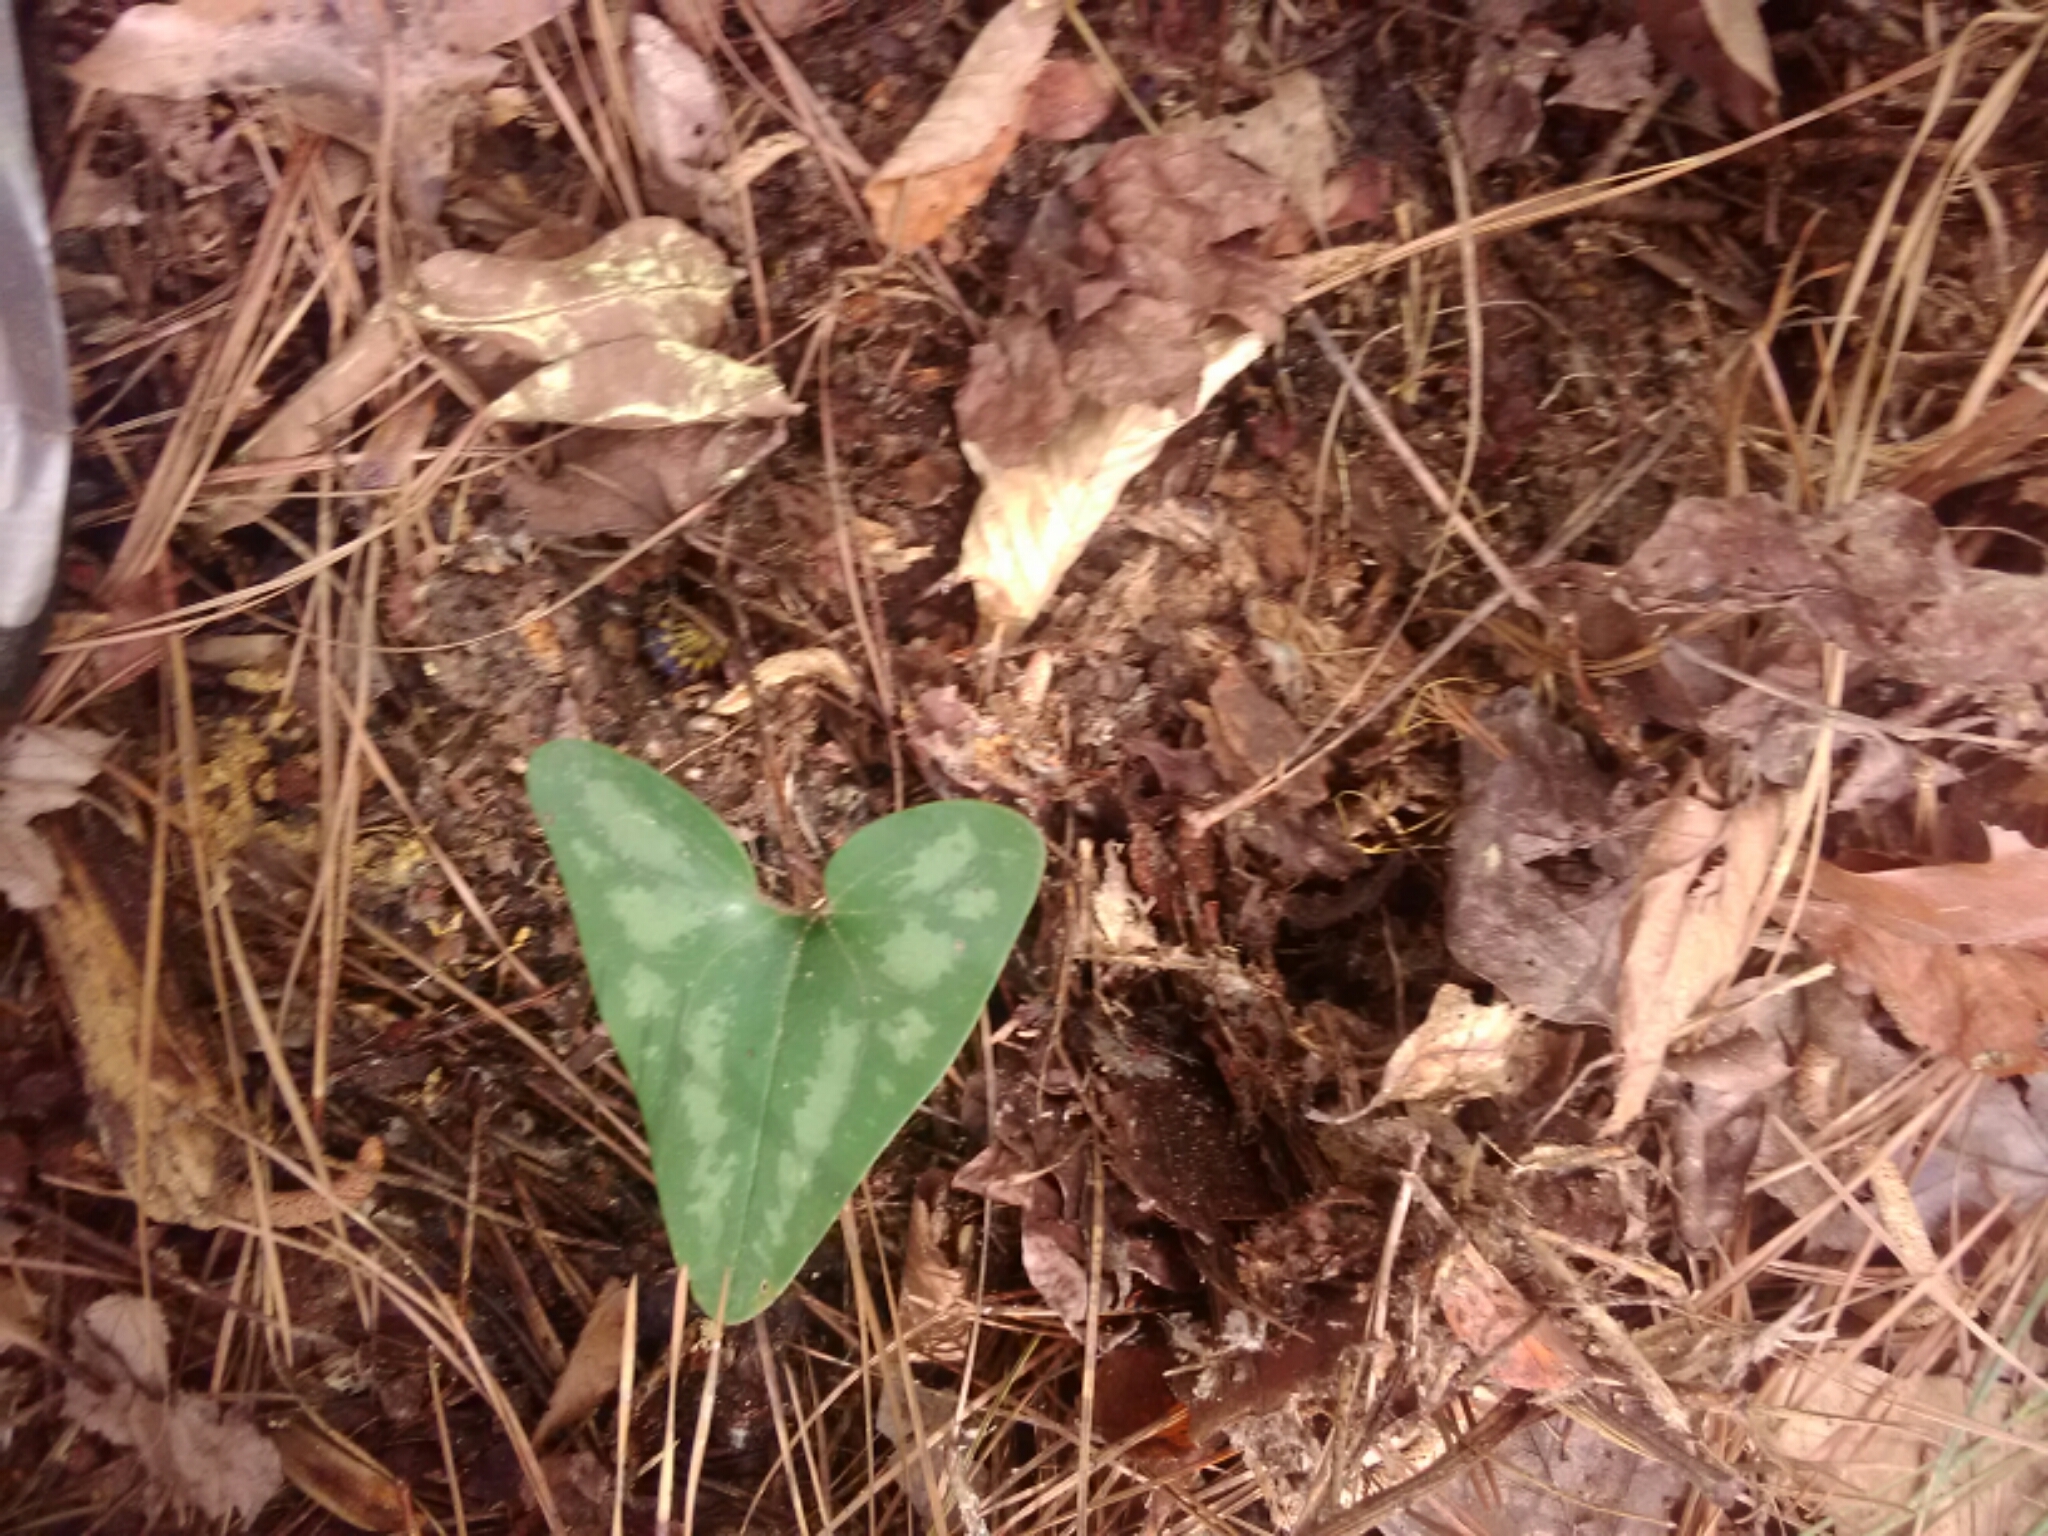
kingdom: Plantae
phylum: Tracheophyta
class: Magnoliopsida
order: Piperales
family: Aristolochiaceae
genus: Hexastylis
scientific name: Hexastylis arifolia
